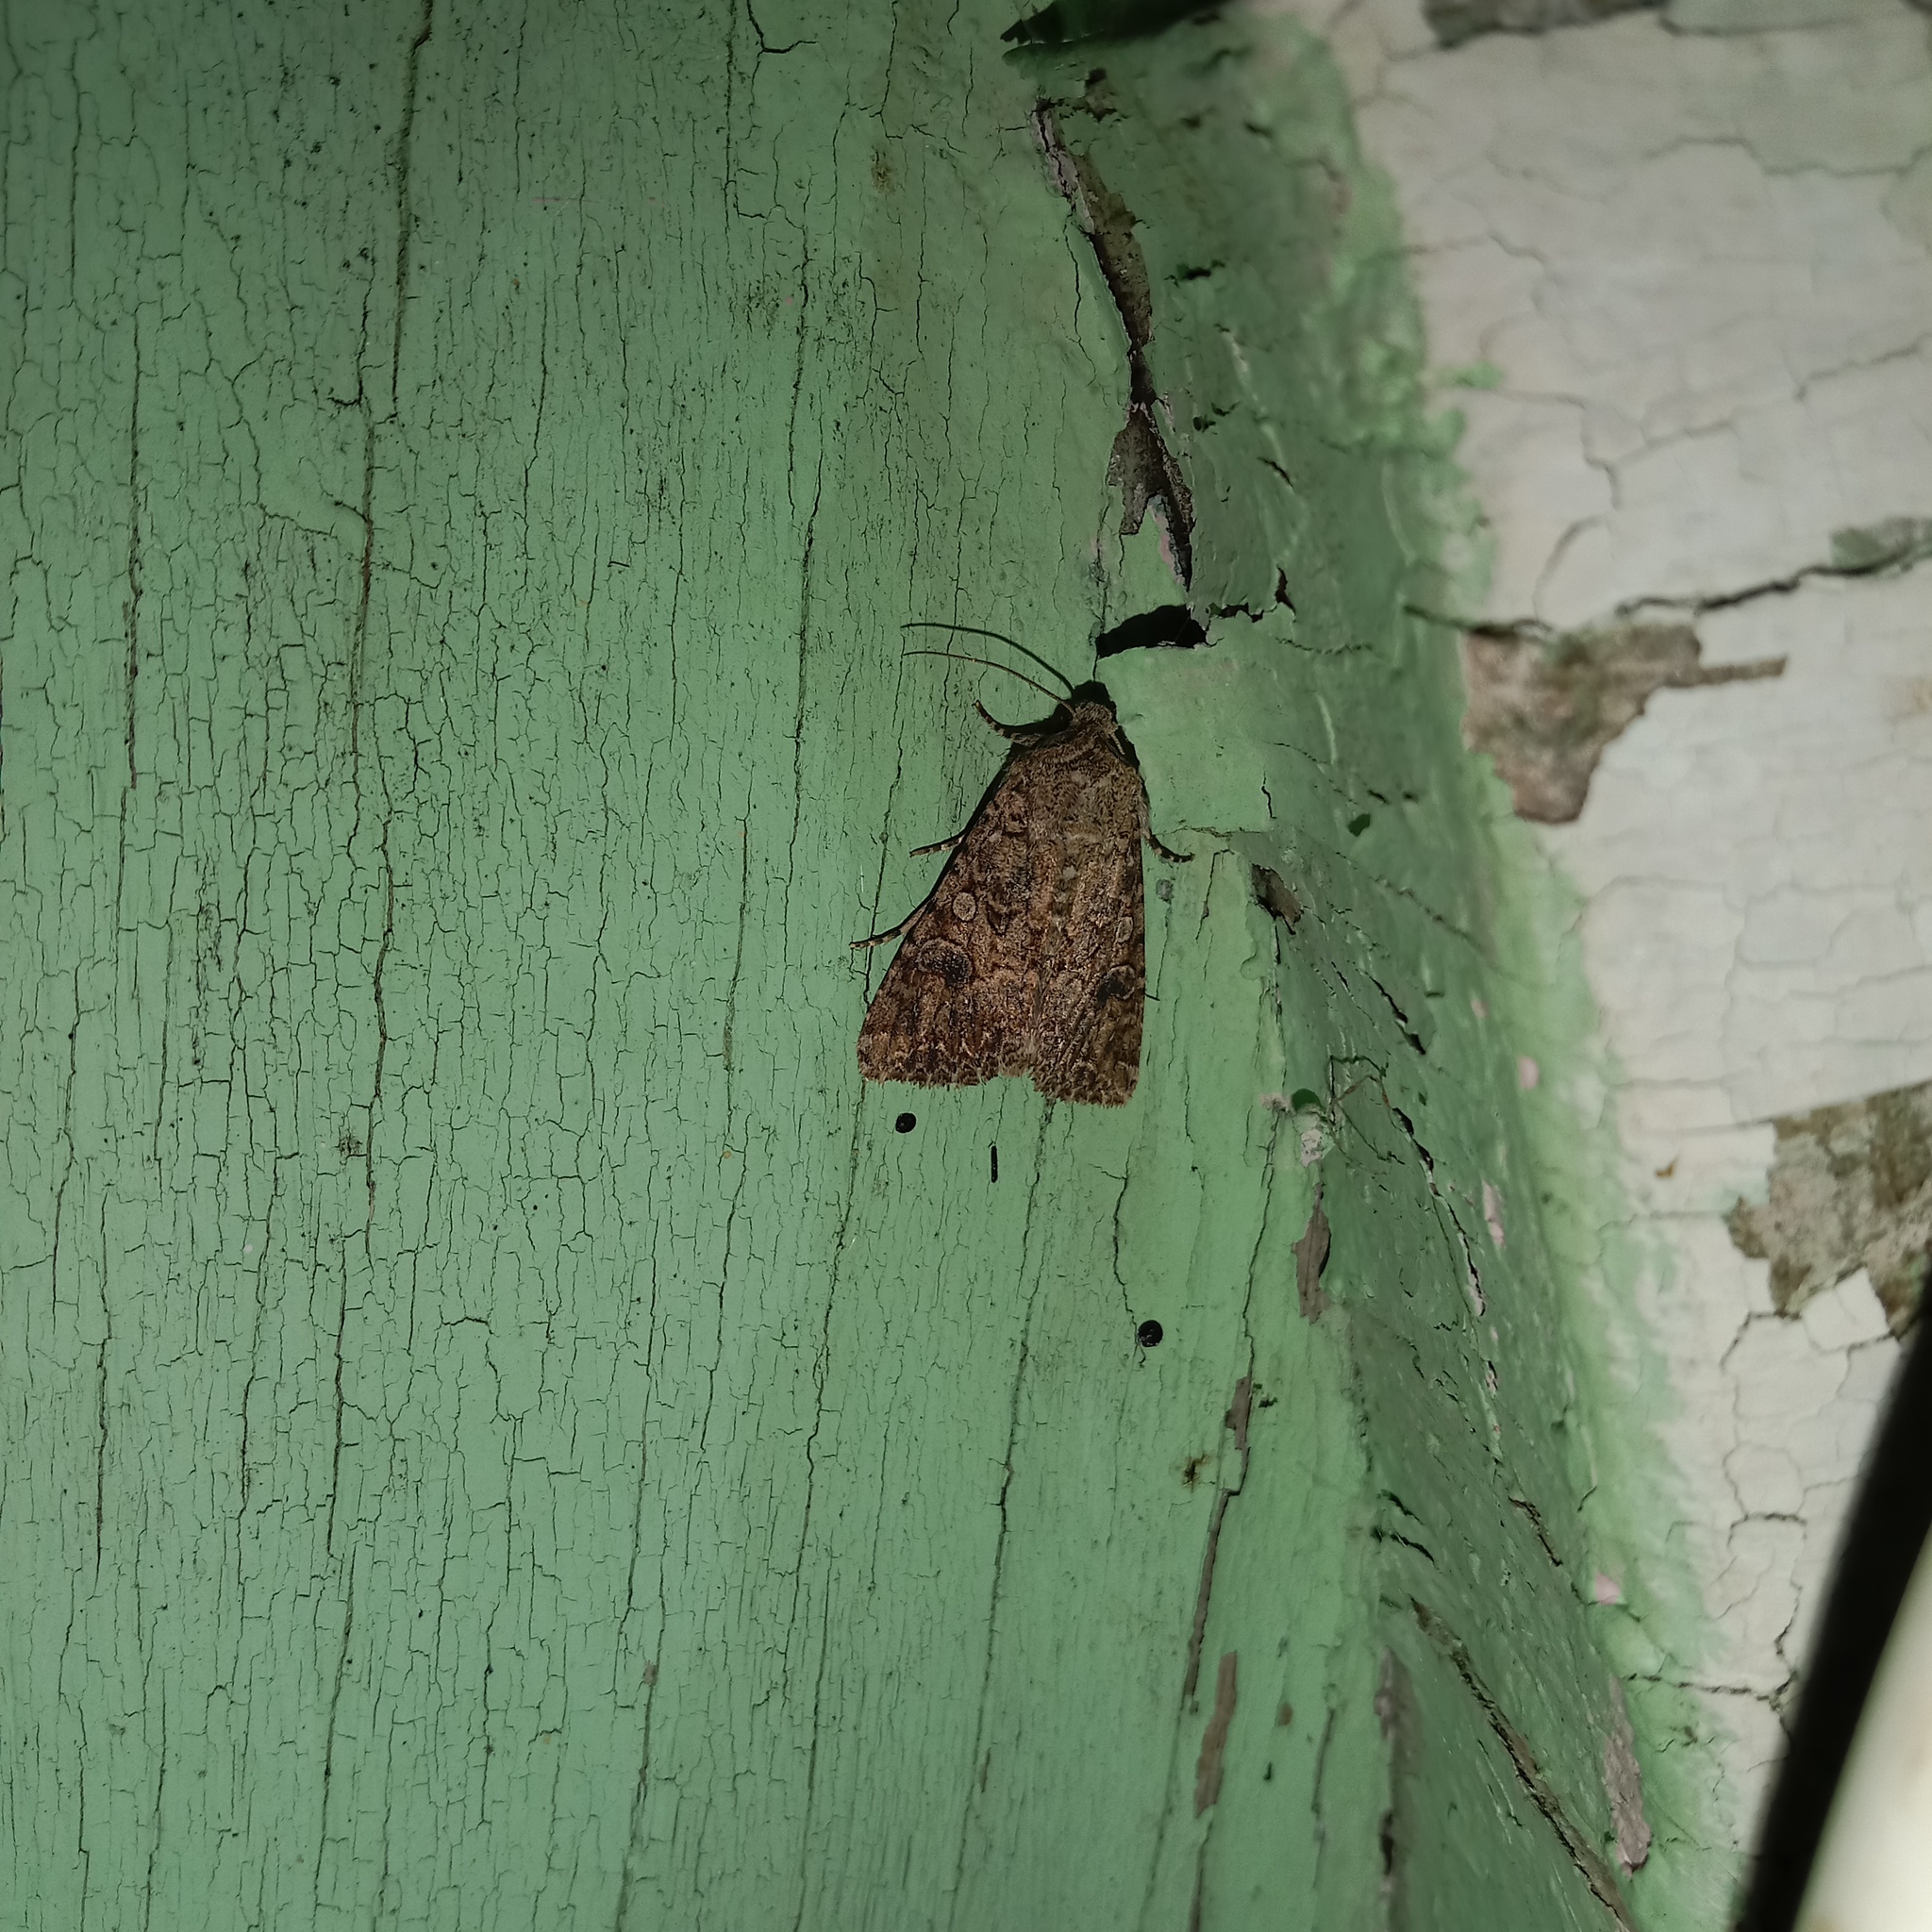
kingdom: Animalia
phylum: Arthropoda
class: Insecta
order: Lepidoptera
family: Noctuidae
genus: Anarta
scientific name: Anarta trifolii
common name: Clover cutworm moth
